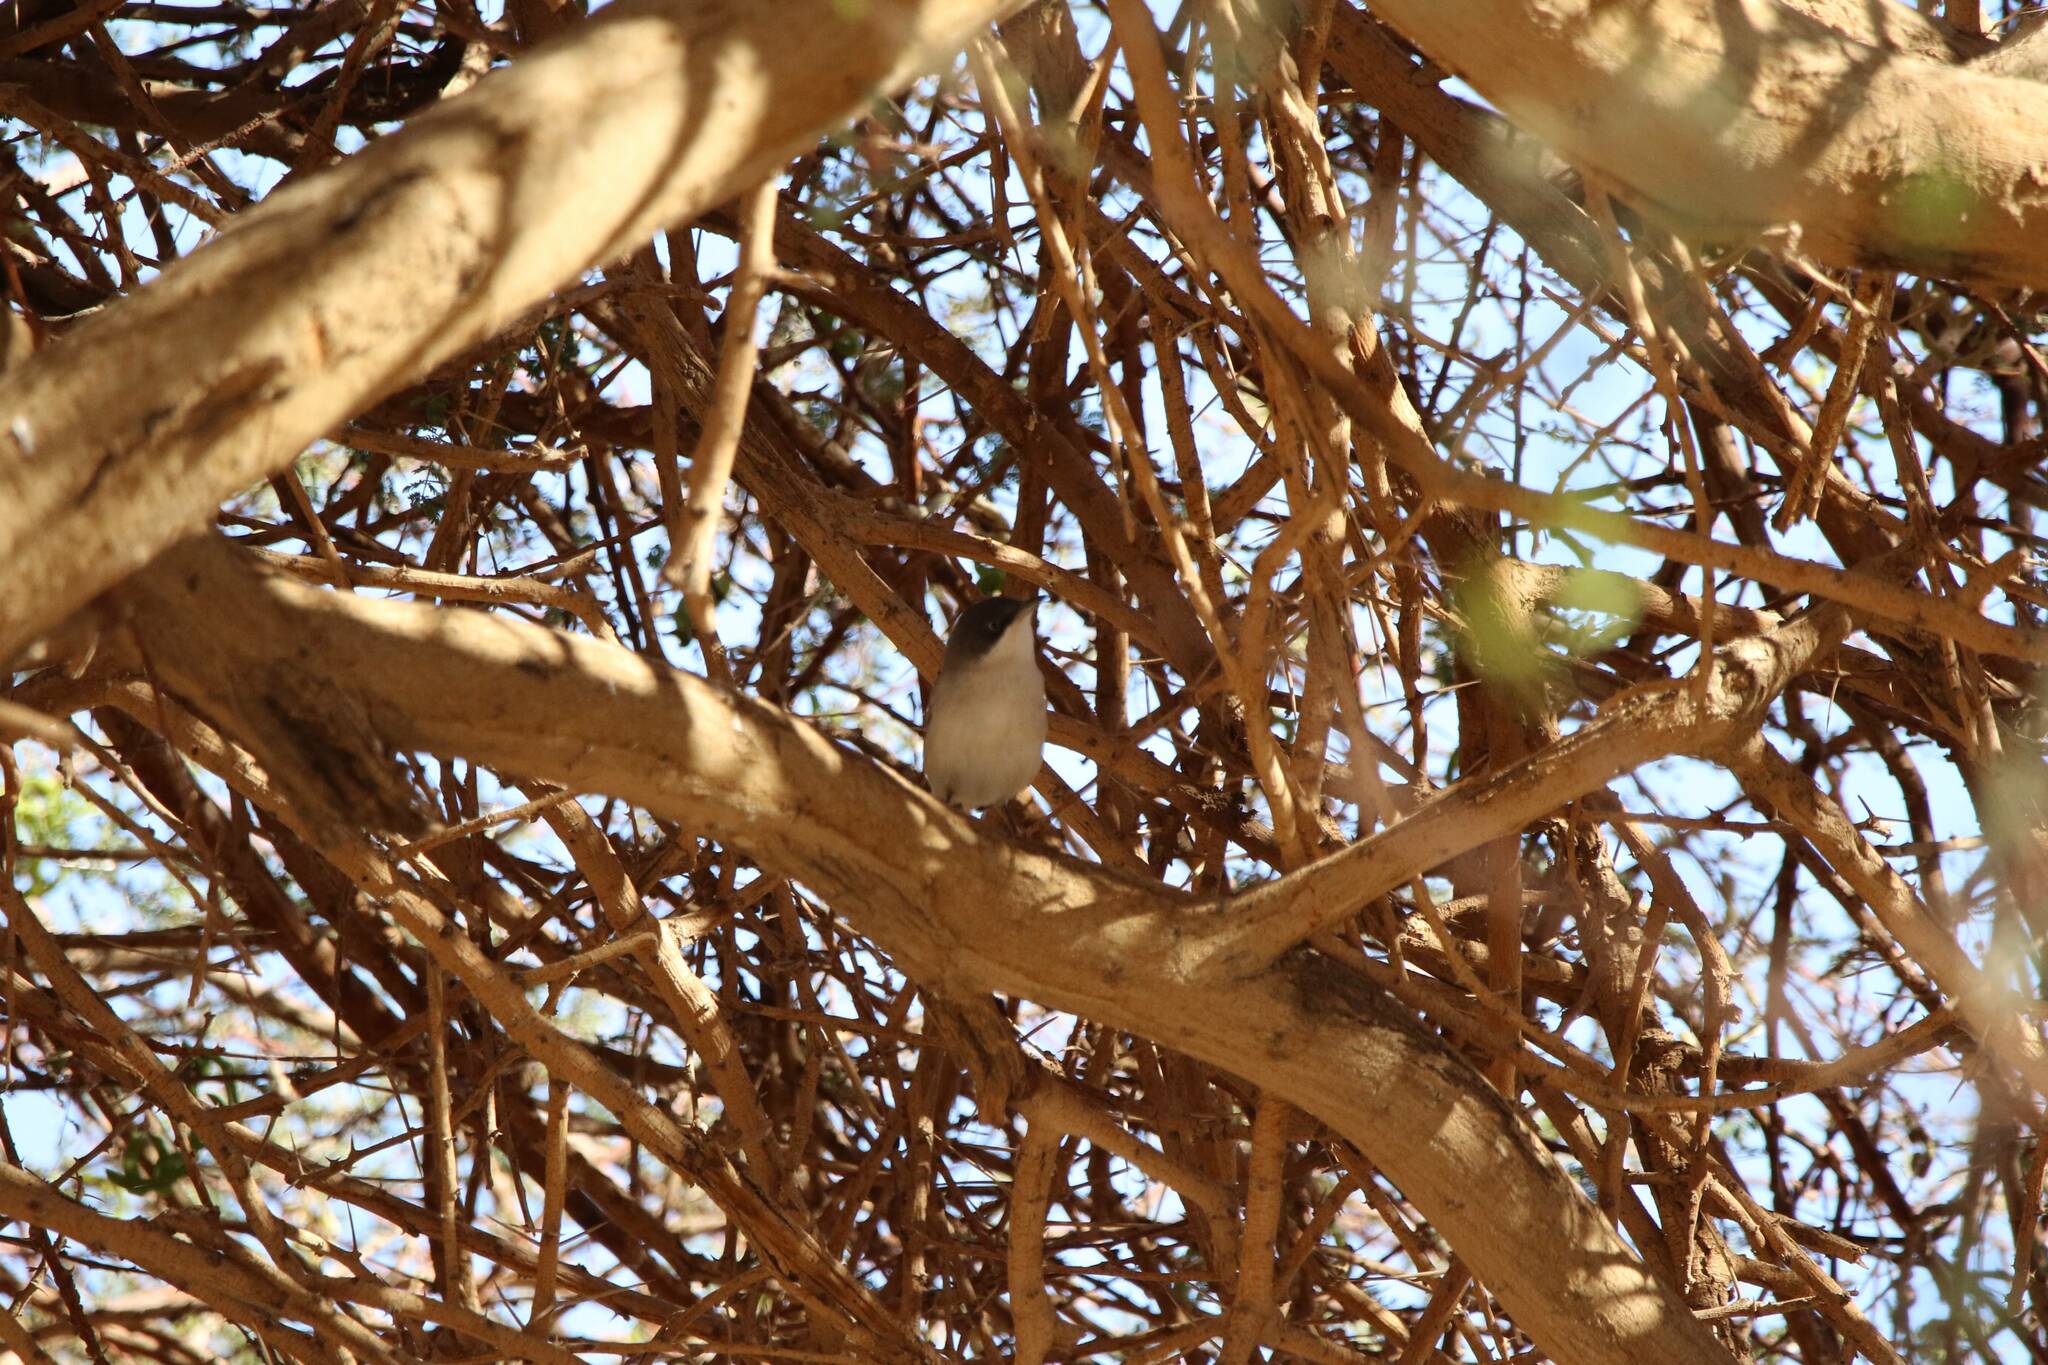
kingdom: Animalia
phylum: Chordata
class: Aves
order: Passeriformes
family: Sylviidae
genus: Curruca
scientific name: Curruca melanocephala
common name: Sardinian warbler
